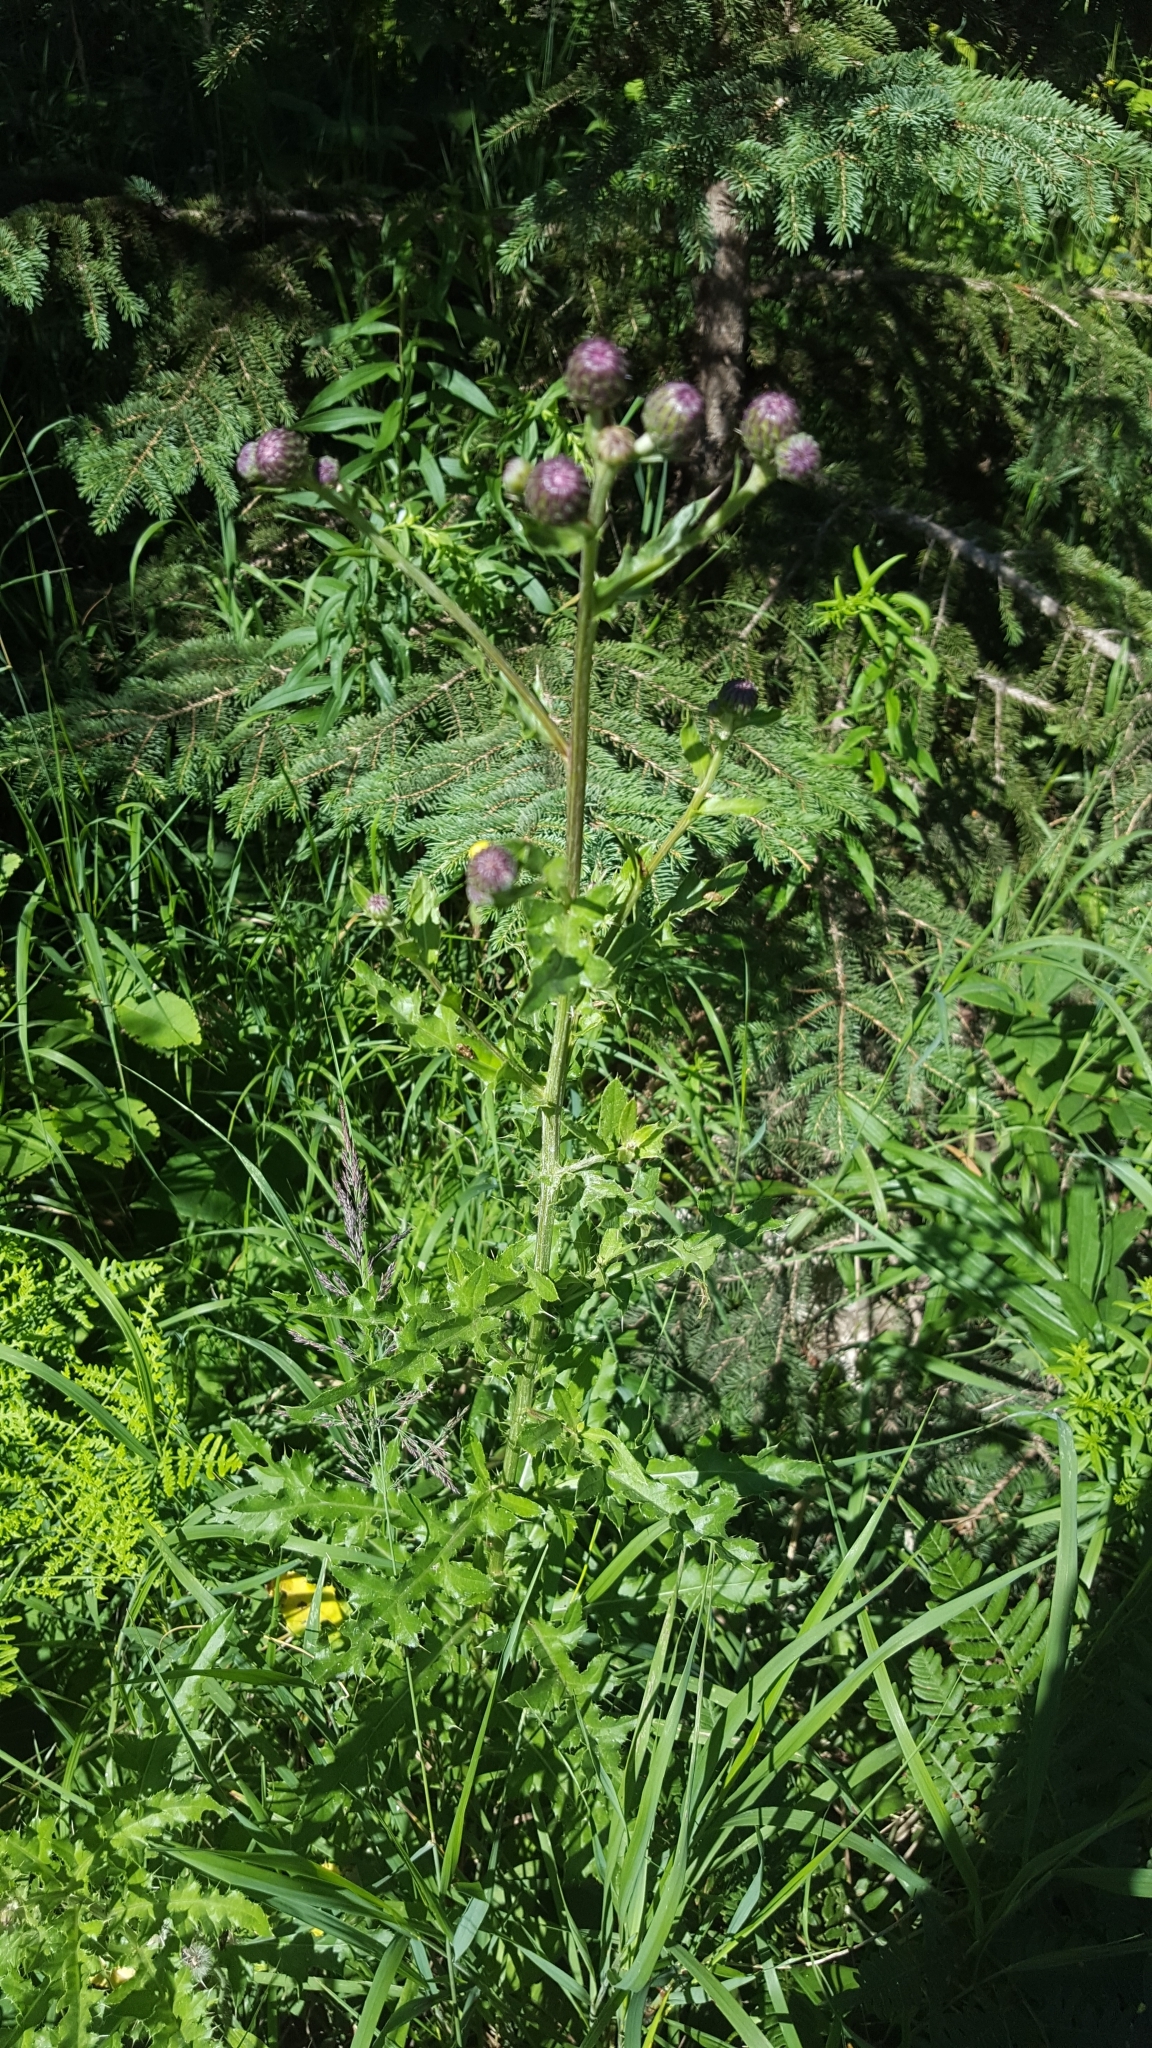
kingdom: Plantae
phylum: Tracheophyta
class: Magnoliopsida
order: Asterales
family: Asteraceae
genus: Cirsium
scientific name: Cirsium arvense
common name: Creeping thistle
